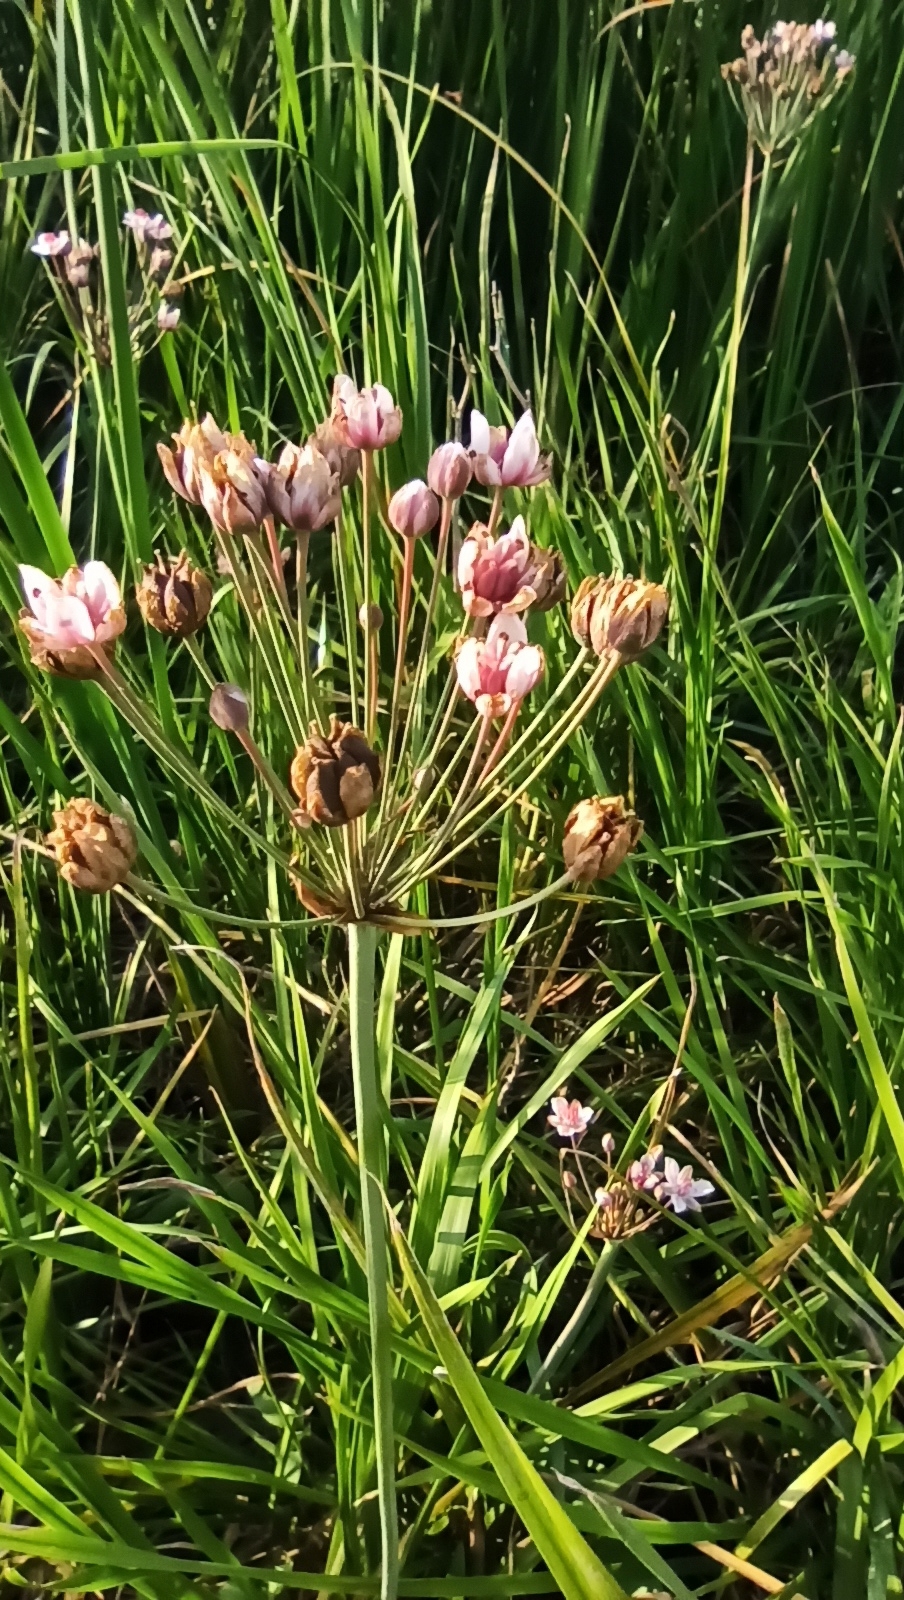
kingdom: Plantae
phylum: Tracheophyta
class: Liliopsida
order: Alismatales
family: Butomaceae
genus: Butomus
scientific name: Butomus umbellatus
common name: Flowering-rush
